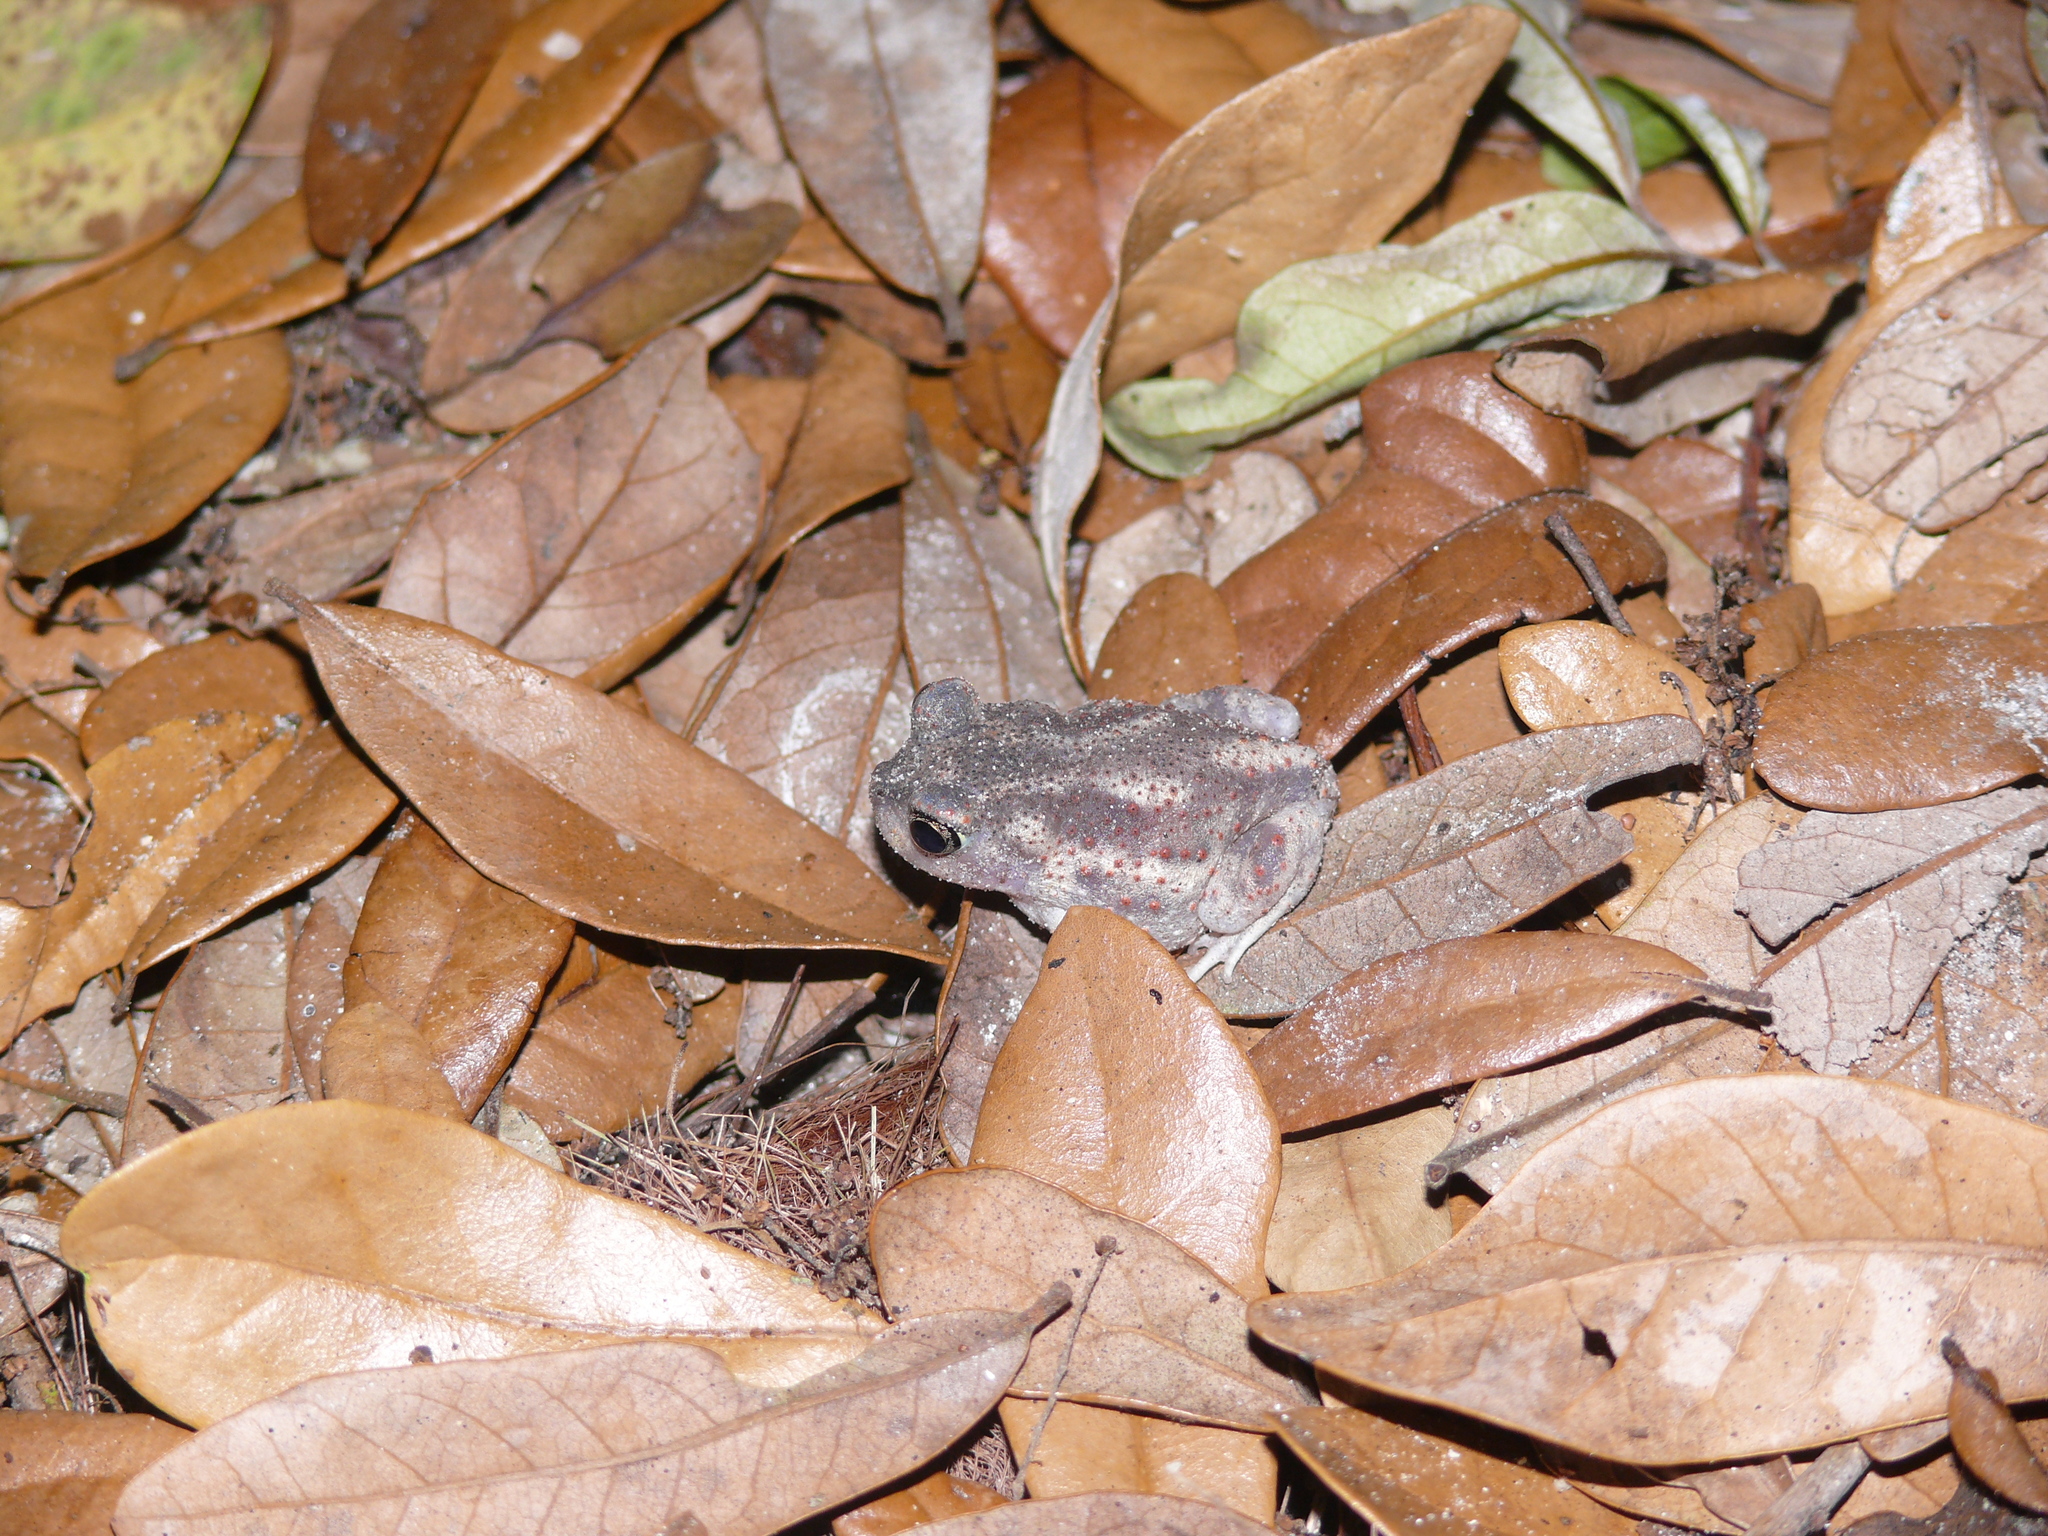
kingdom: Animalia
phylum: Chordata
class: Amphibia
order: Anura
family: Scaphiopodidae
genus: Scaphiopus
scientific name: Scaphiopus holbrookii
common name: Eastern spadefoot toad
